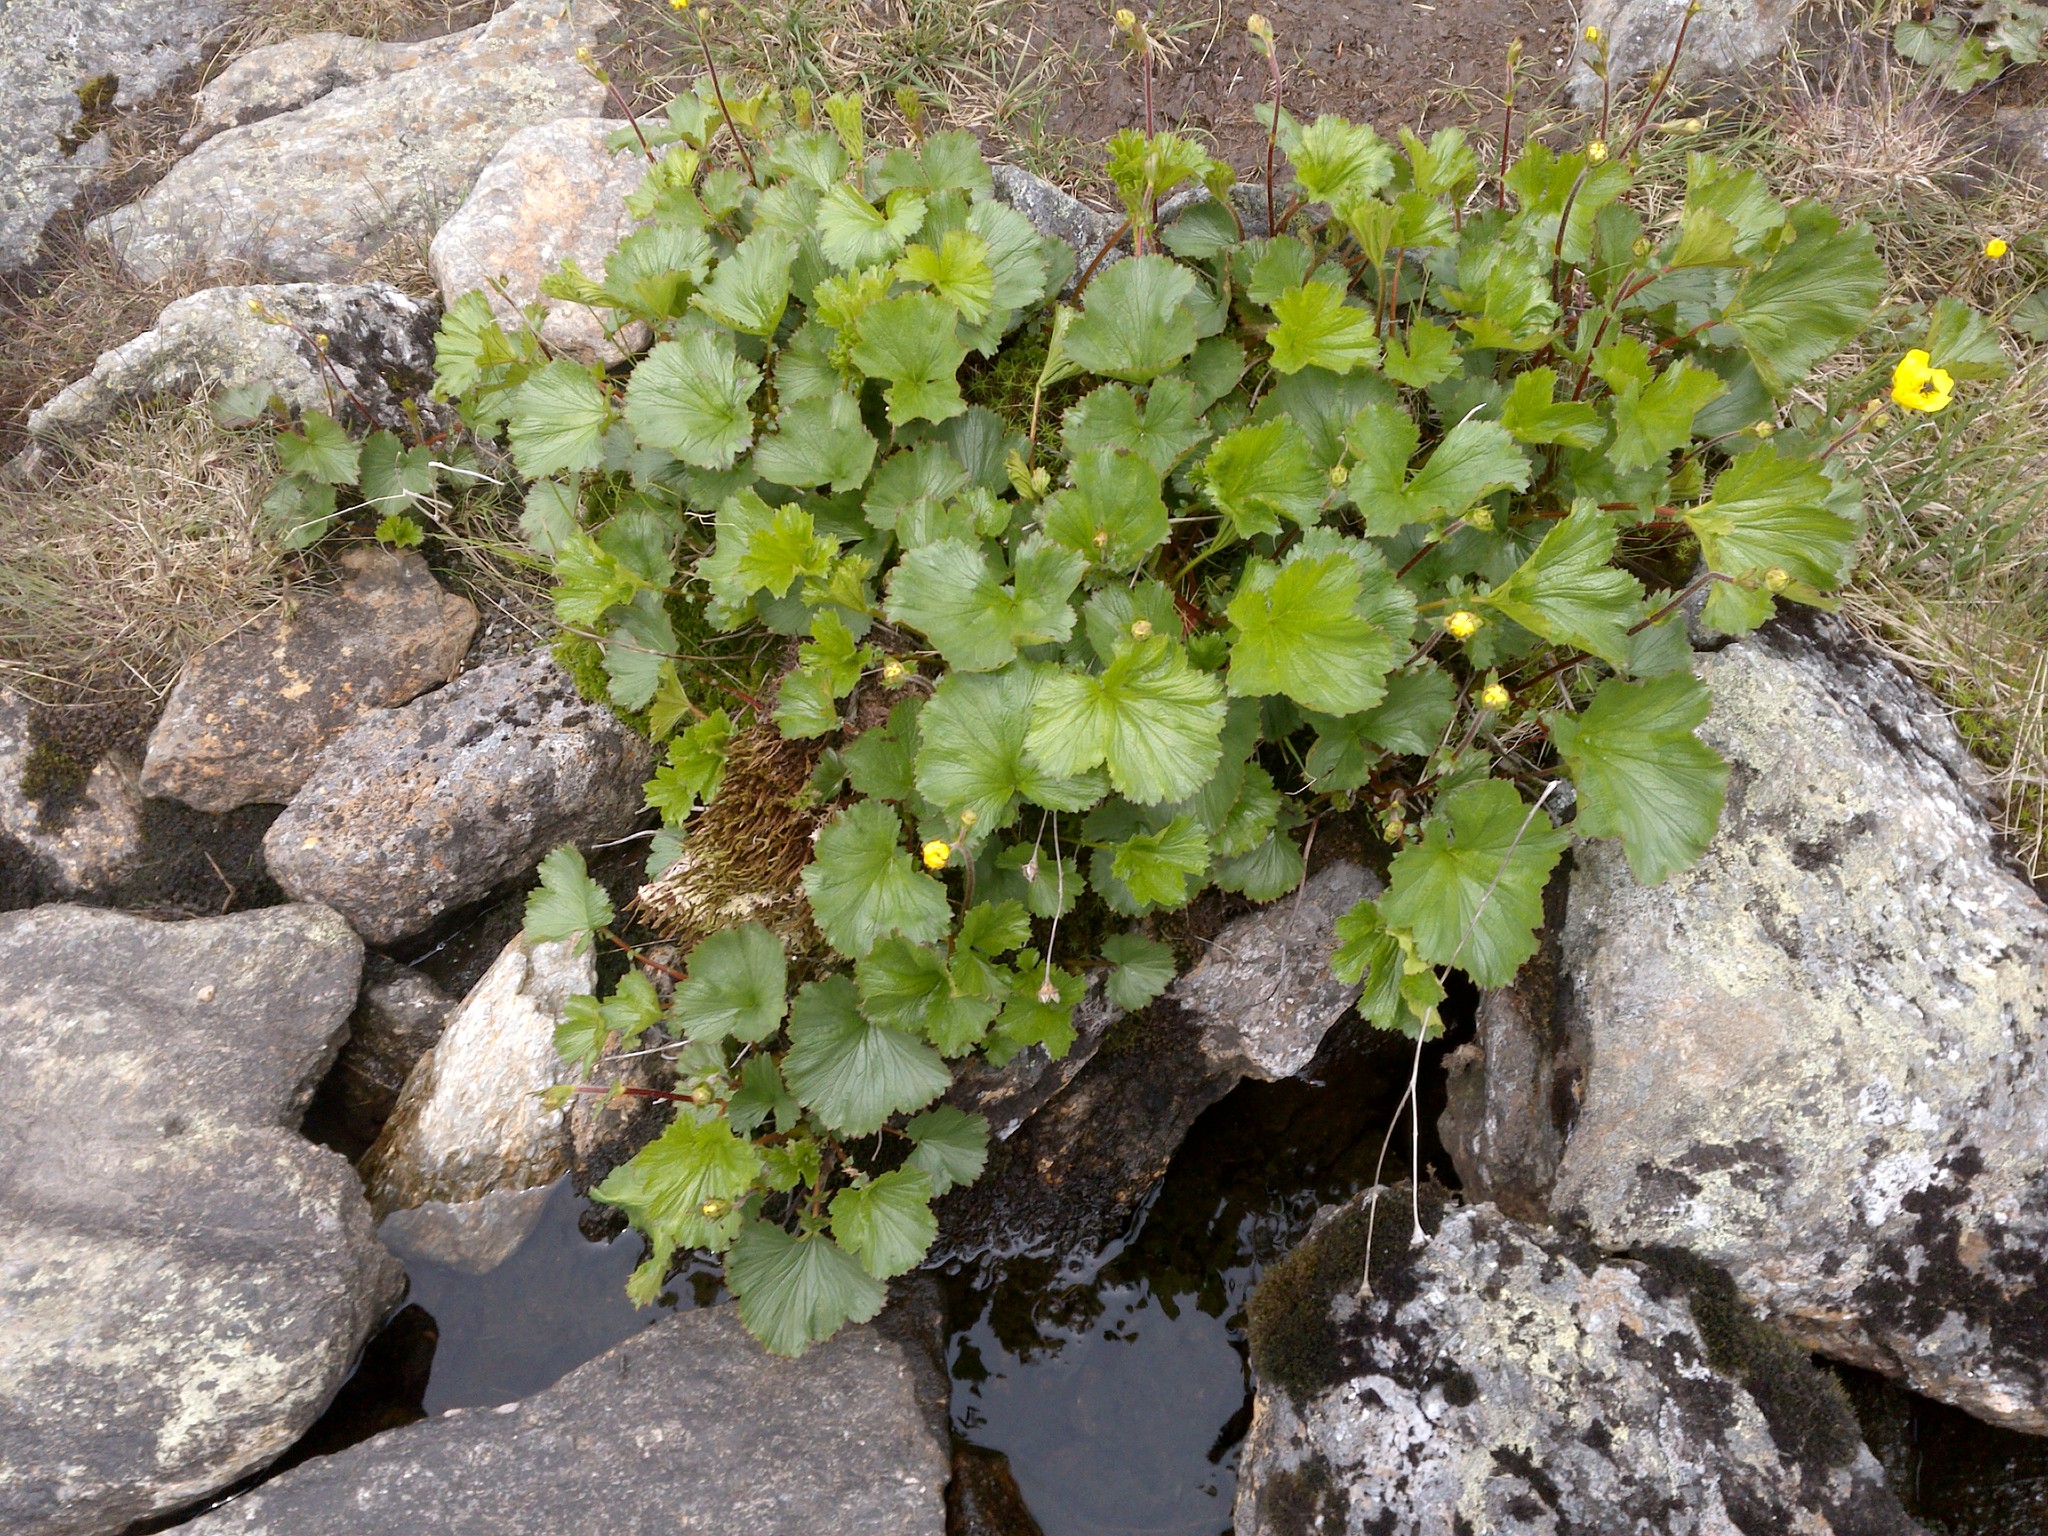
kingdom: Plantae
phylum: Tracheophyta
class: Magnoliopsida
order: Rosales
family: Rosaceae
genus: Geum
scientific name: Geum peckii
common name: Eastern mountain avens
